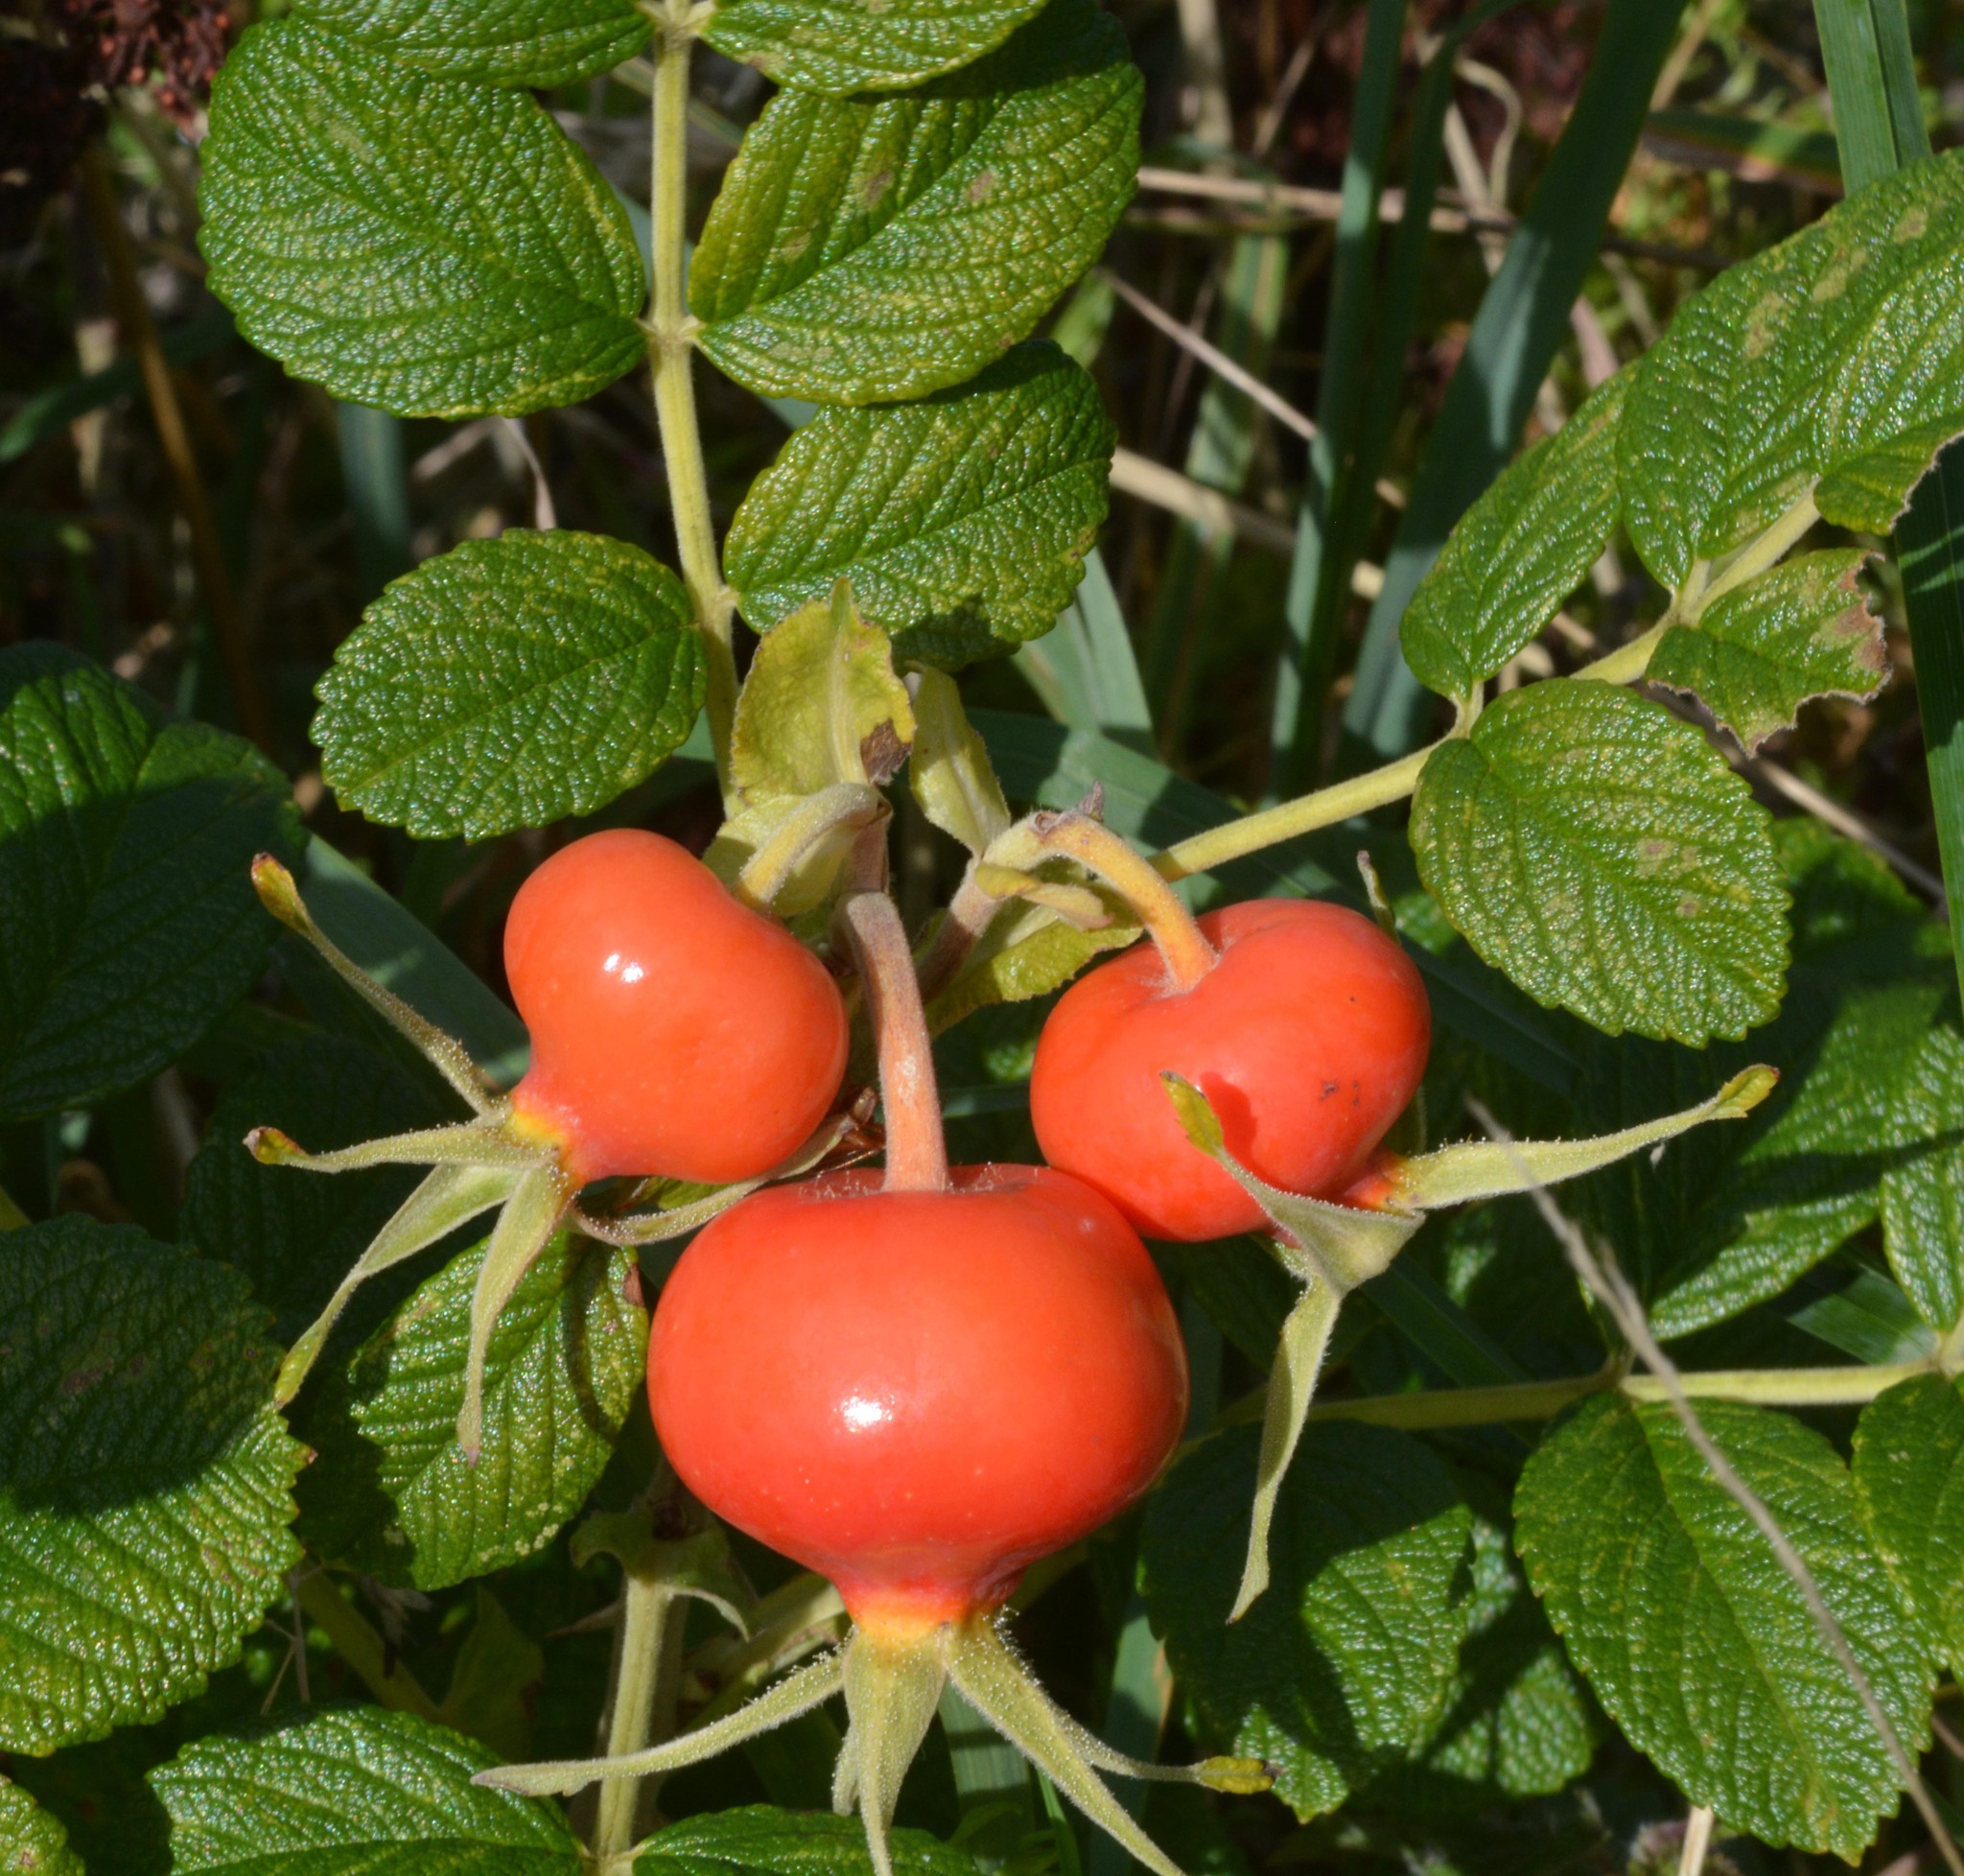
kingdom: Plantae
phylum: Tracheophyta
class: Magnoliopsida
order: Rosales
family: Rosaceae
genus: Rosa
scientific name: Rosa rugosa
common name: Japanese rose
